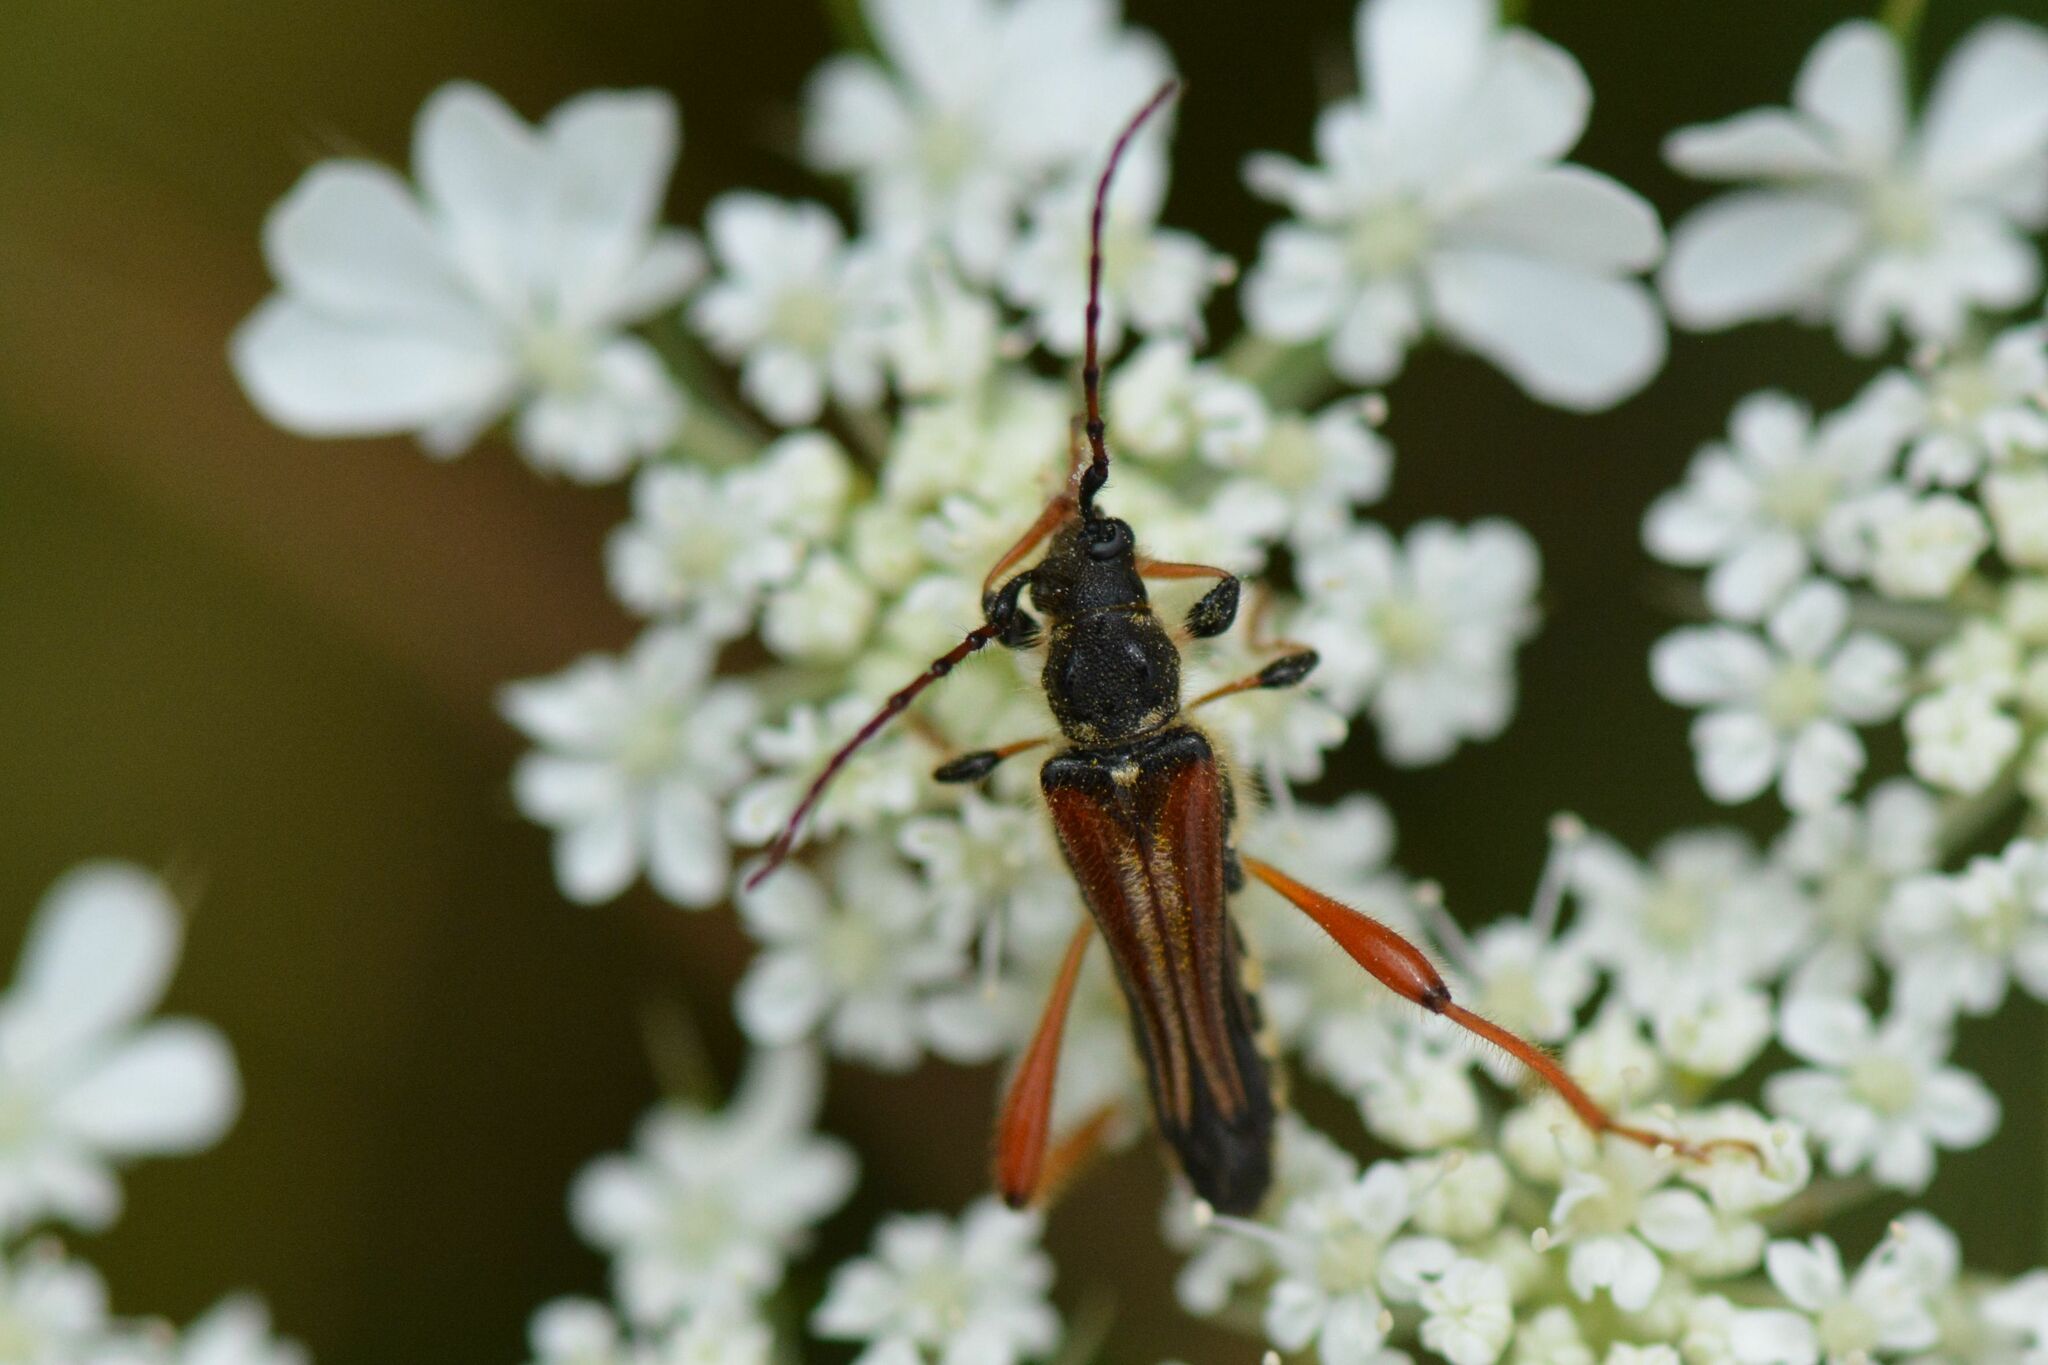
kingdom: Animalia
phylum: Arthropoda
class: Insecta
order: Coleoptera
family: Cerambycidae
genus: Stenopterus
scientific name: Stenopterus rufus
